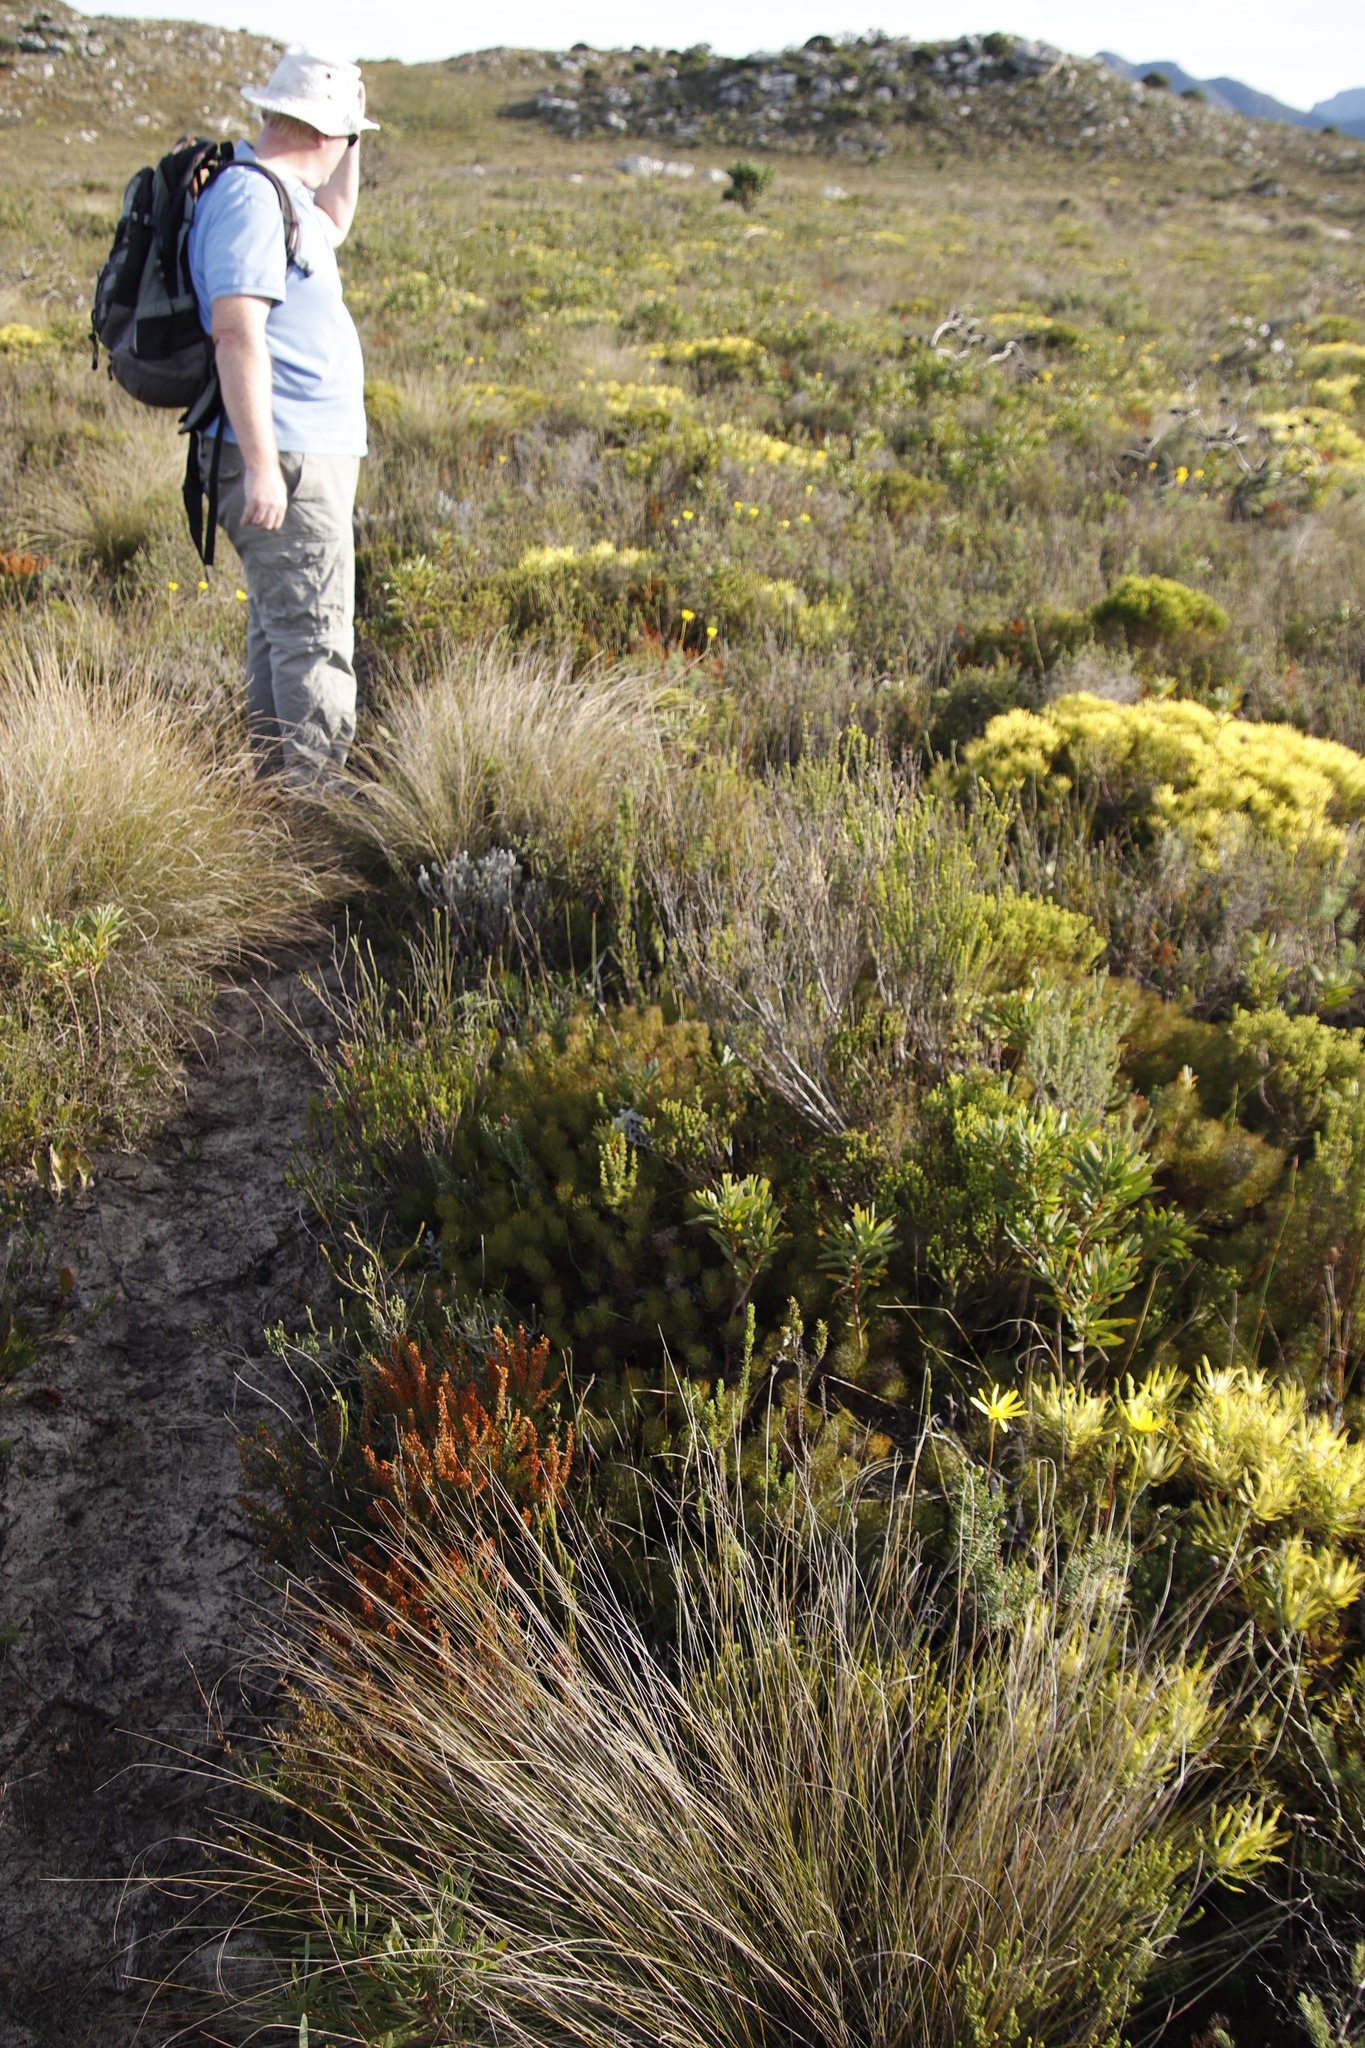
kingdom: Plantae
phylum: Tracheophyta
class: Magnoliopsida
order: Proteales
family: Proteaceae
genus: Serruria
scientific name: Serruria cyanoides
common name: Wynberg spiderhead
